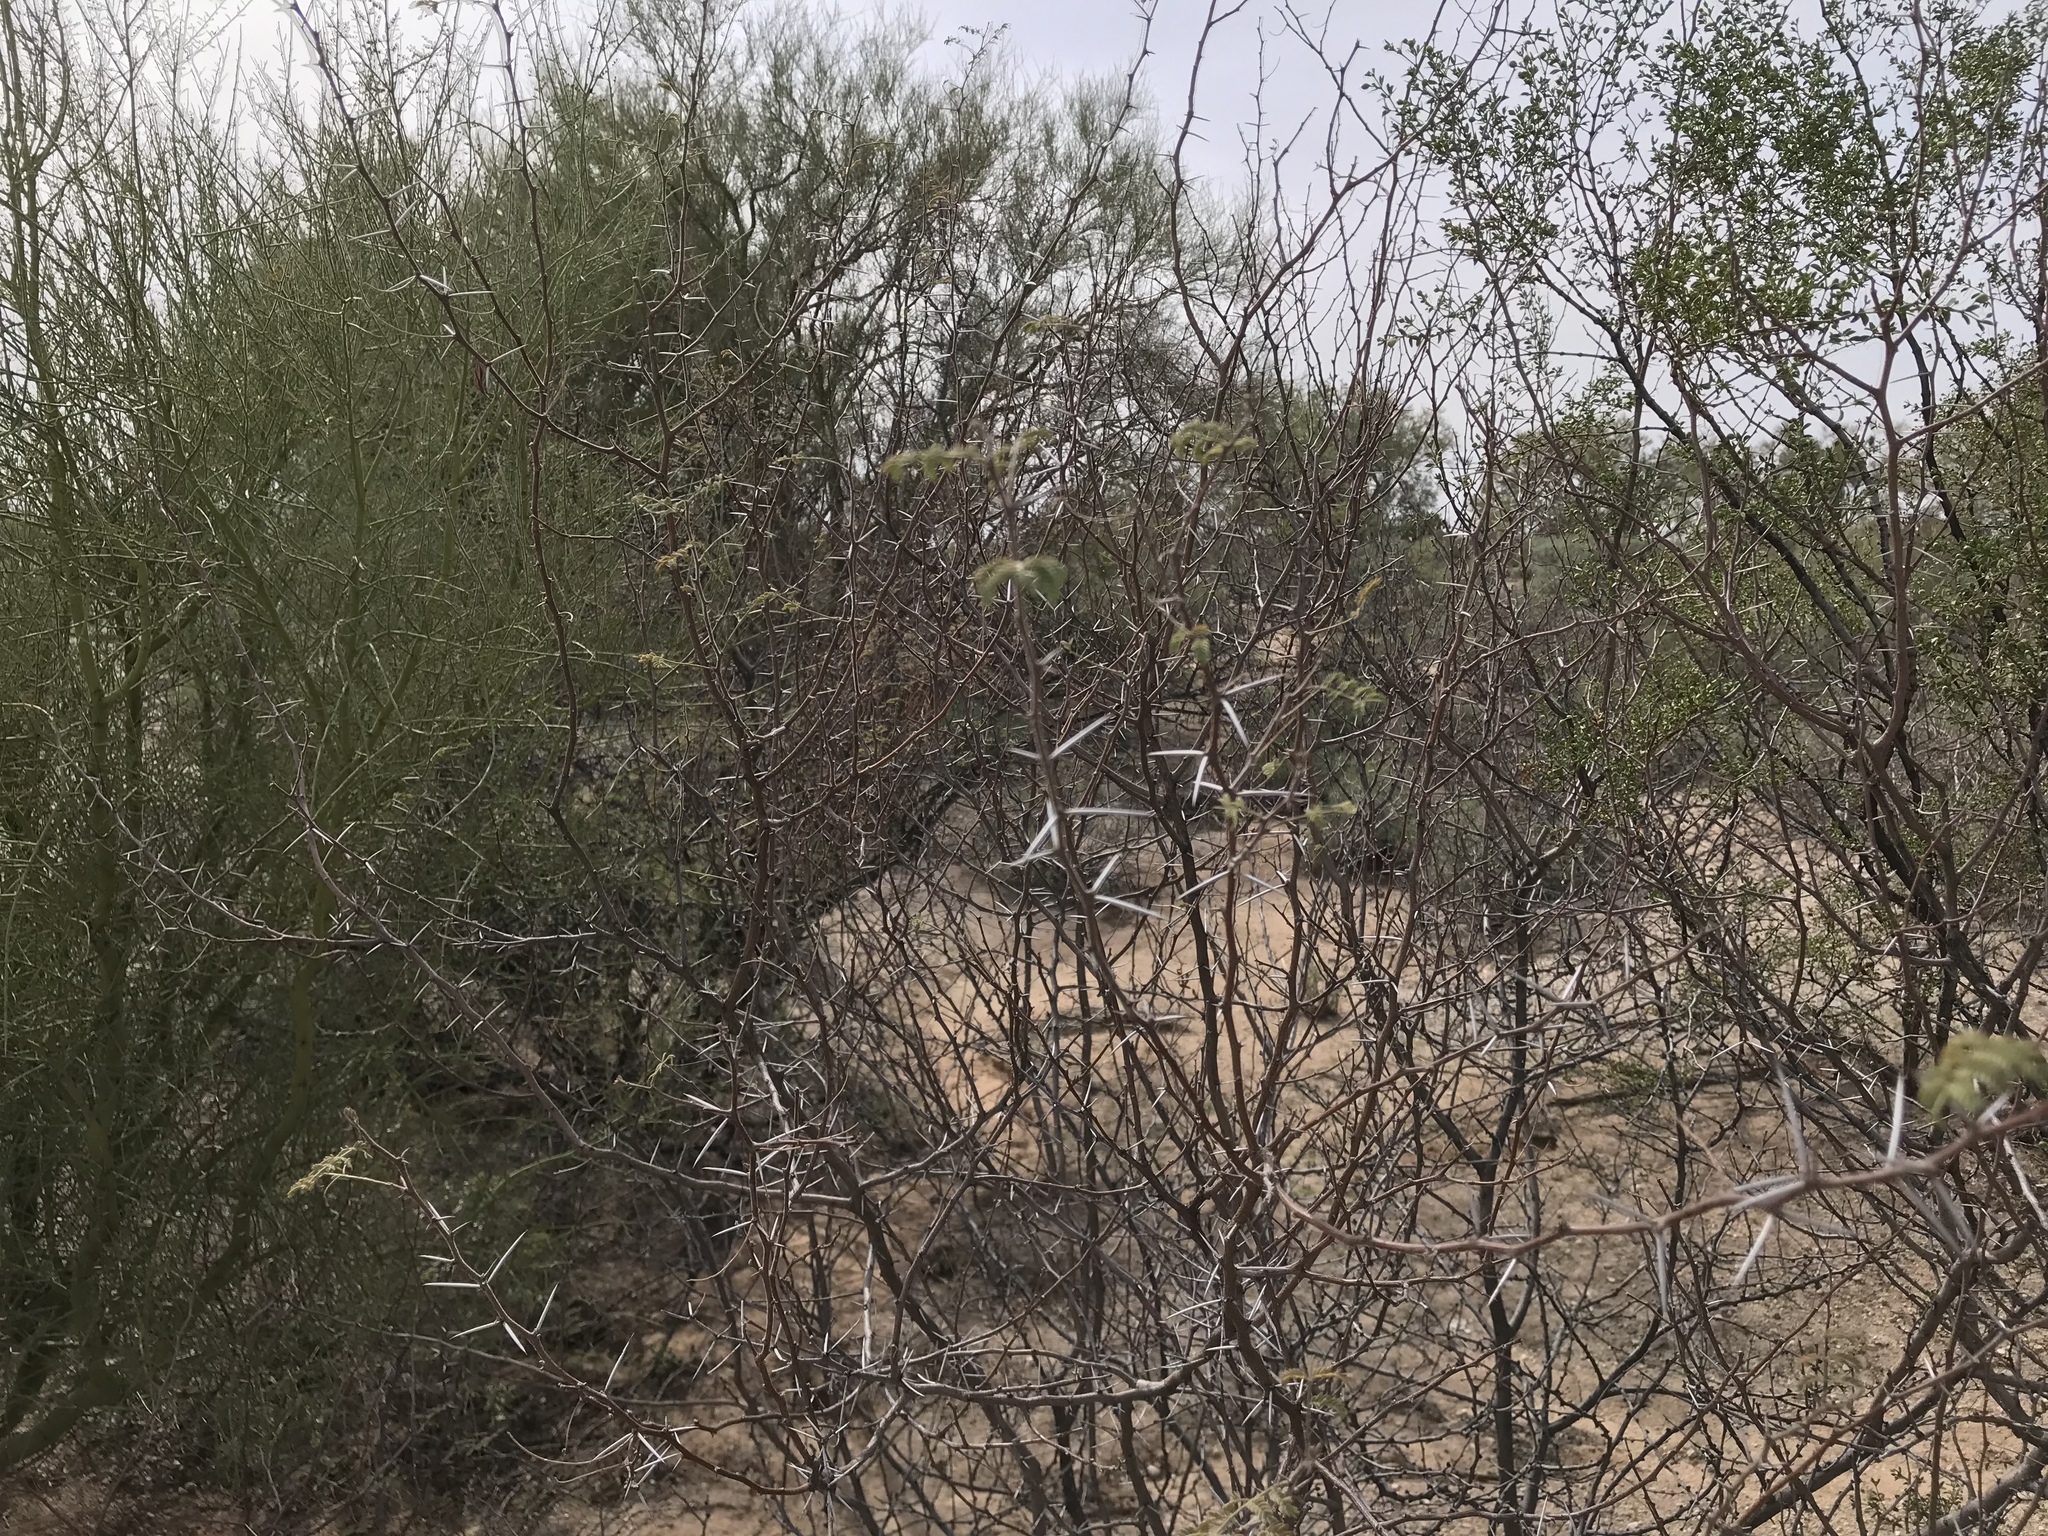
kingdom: Plantae
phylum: Tracheophyta
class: Magnoliopsida
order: Fabales
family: Fabaceae
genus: Vachellia
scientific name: Vachellia constricta
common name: Mescat acacia
